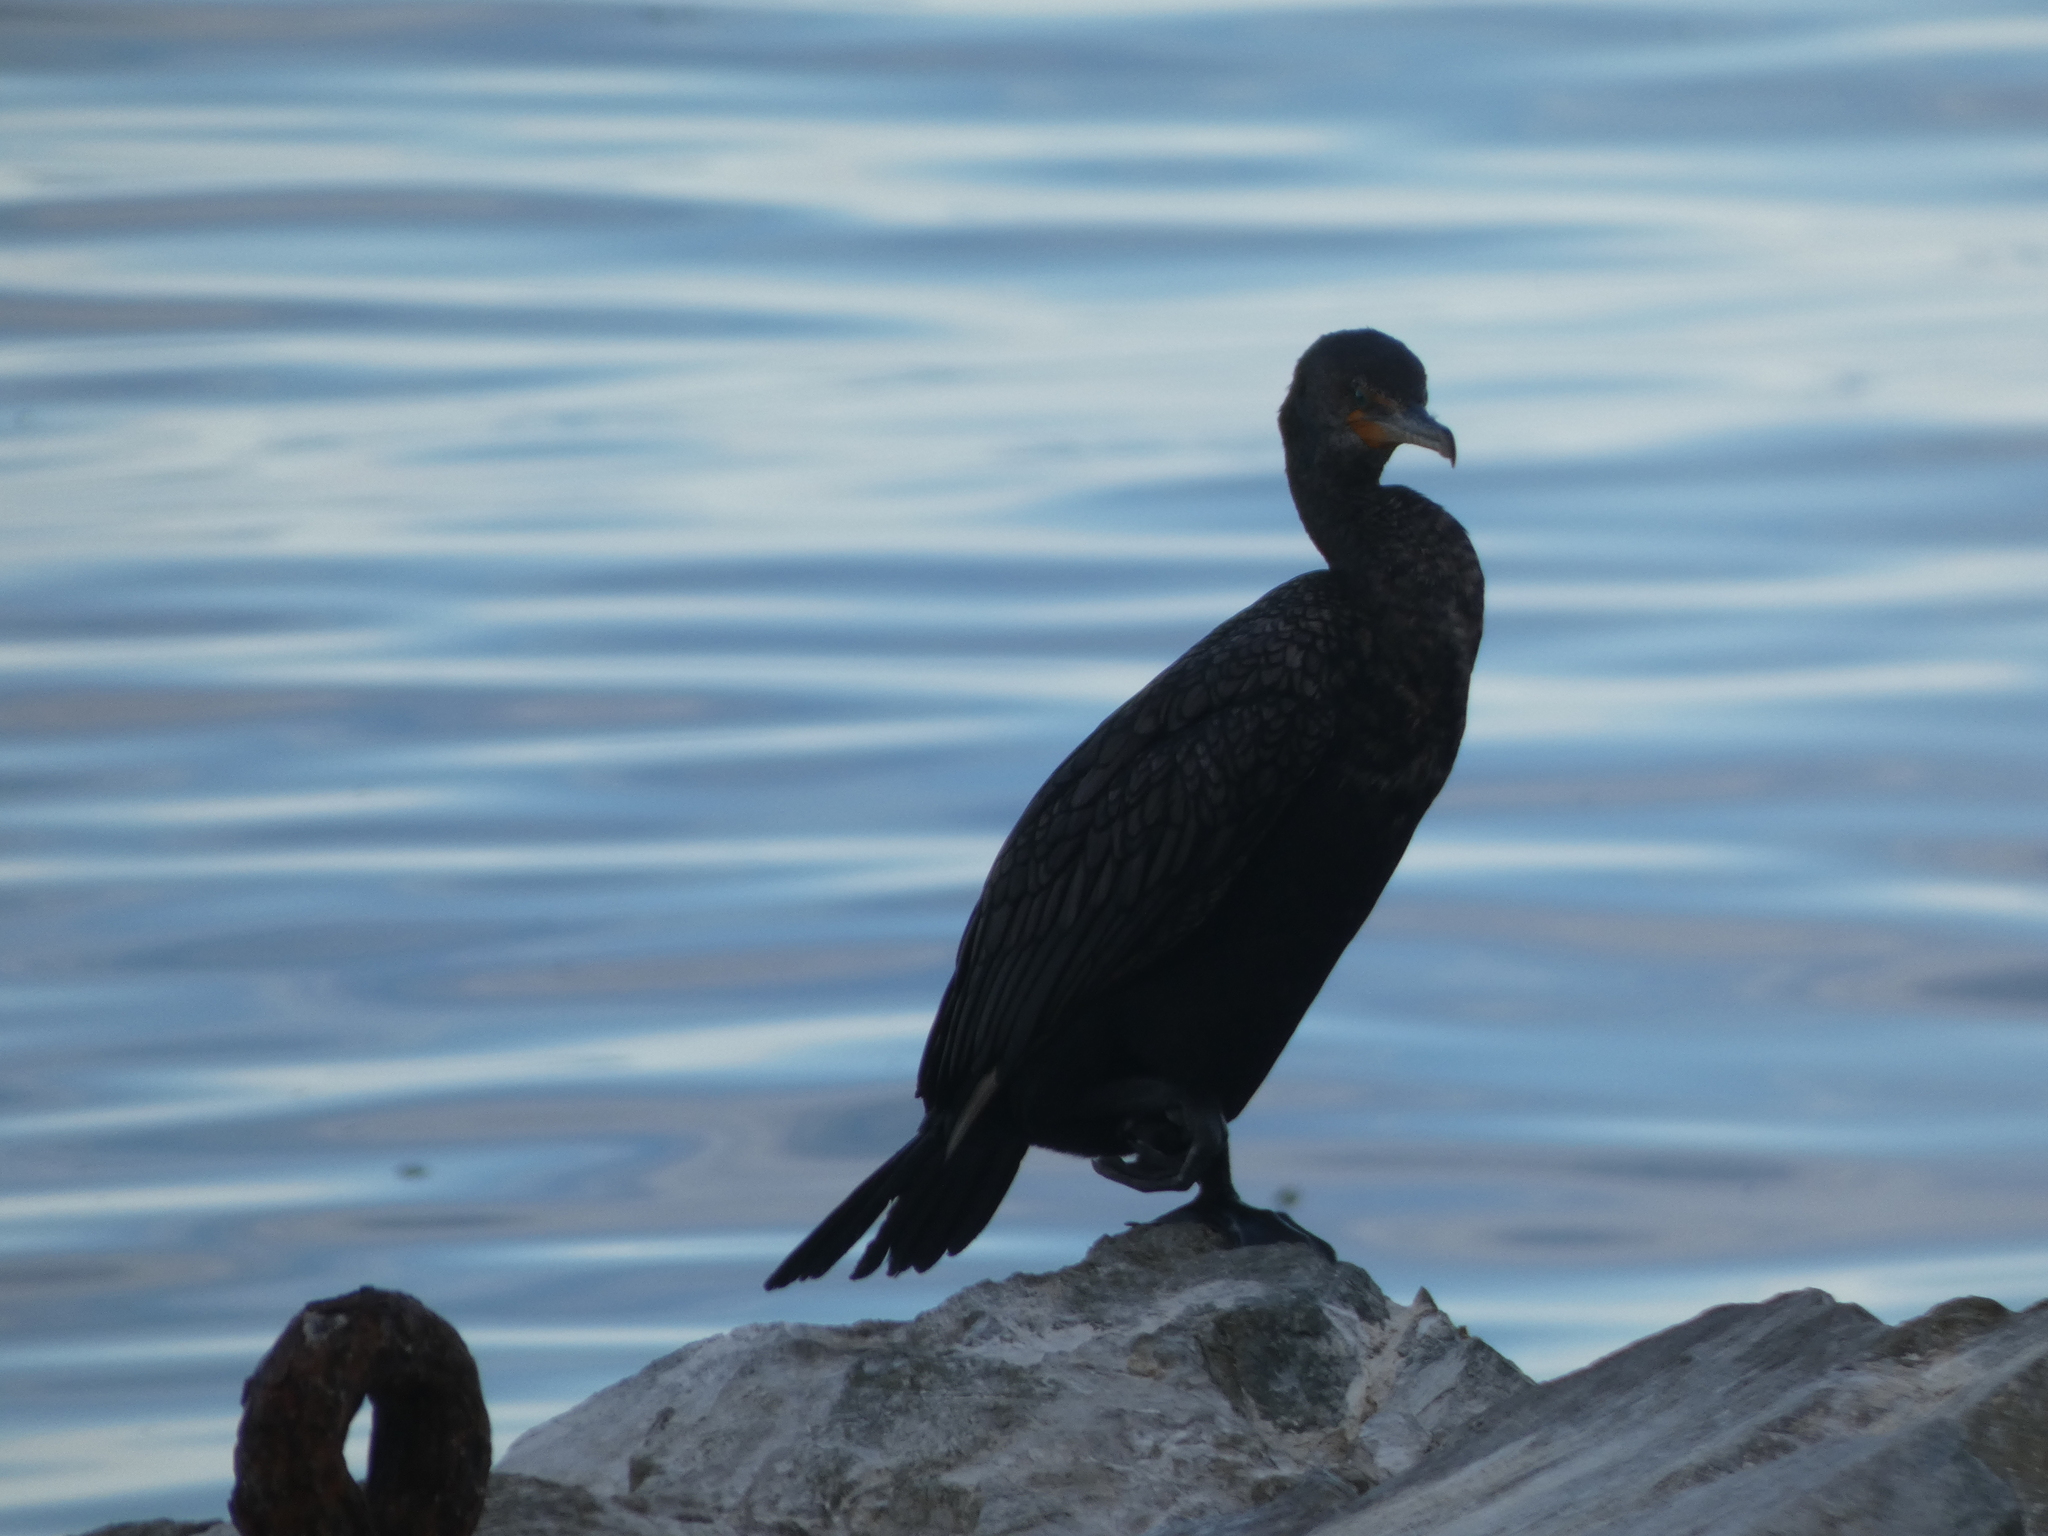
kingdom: Animalia
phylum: Chordata
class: Aves
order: Suliformes
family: Phalacrocoracidae
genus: Phalacrocorax
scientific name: Phalacrocorax auritus
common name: Double-crested cormorant
